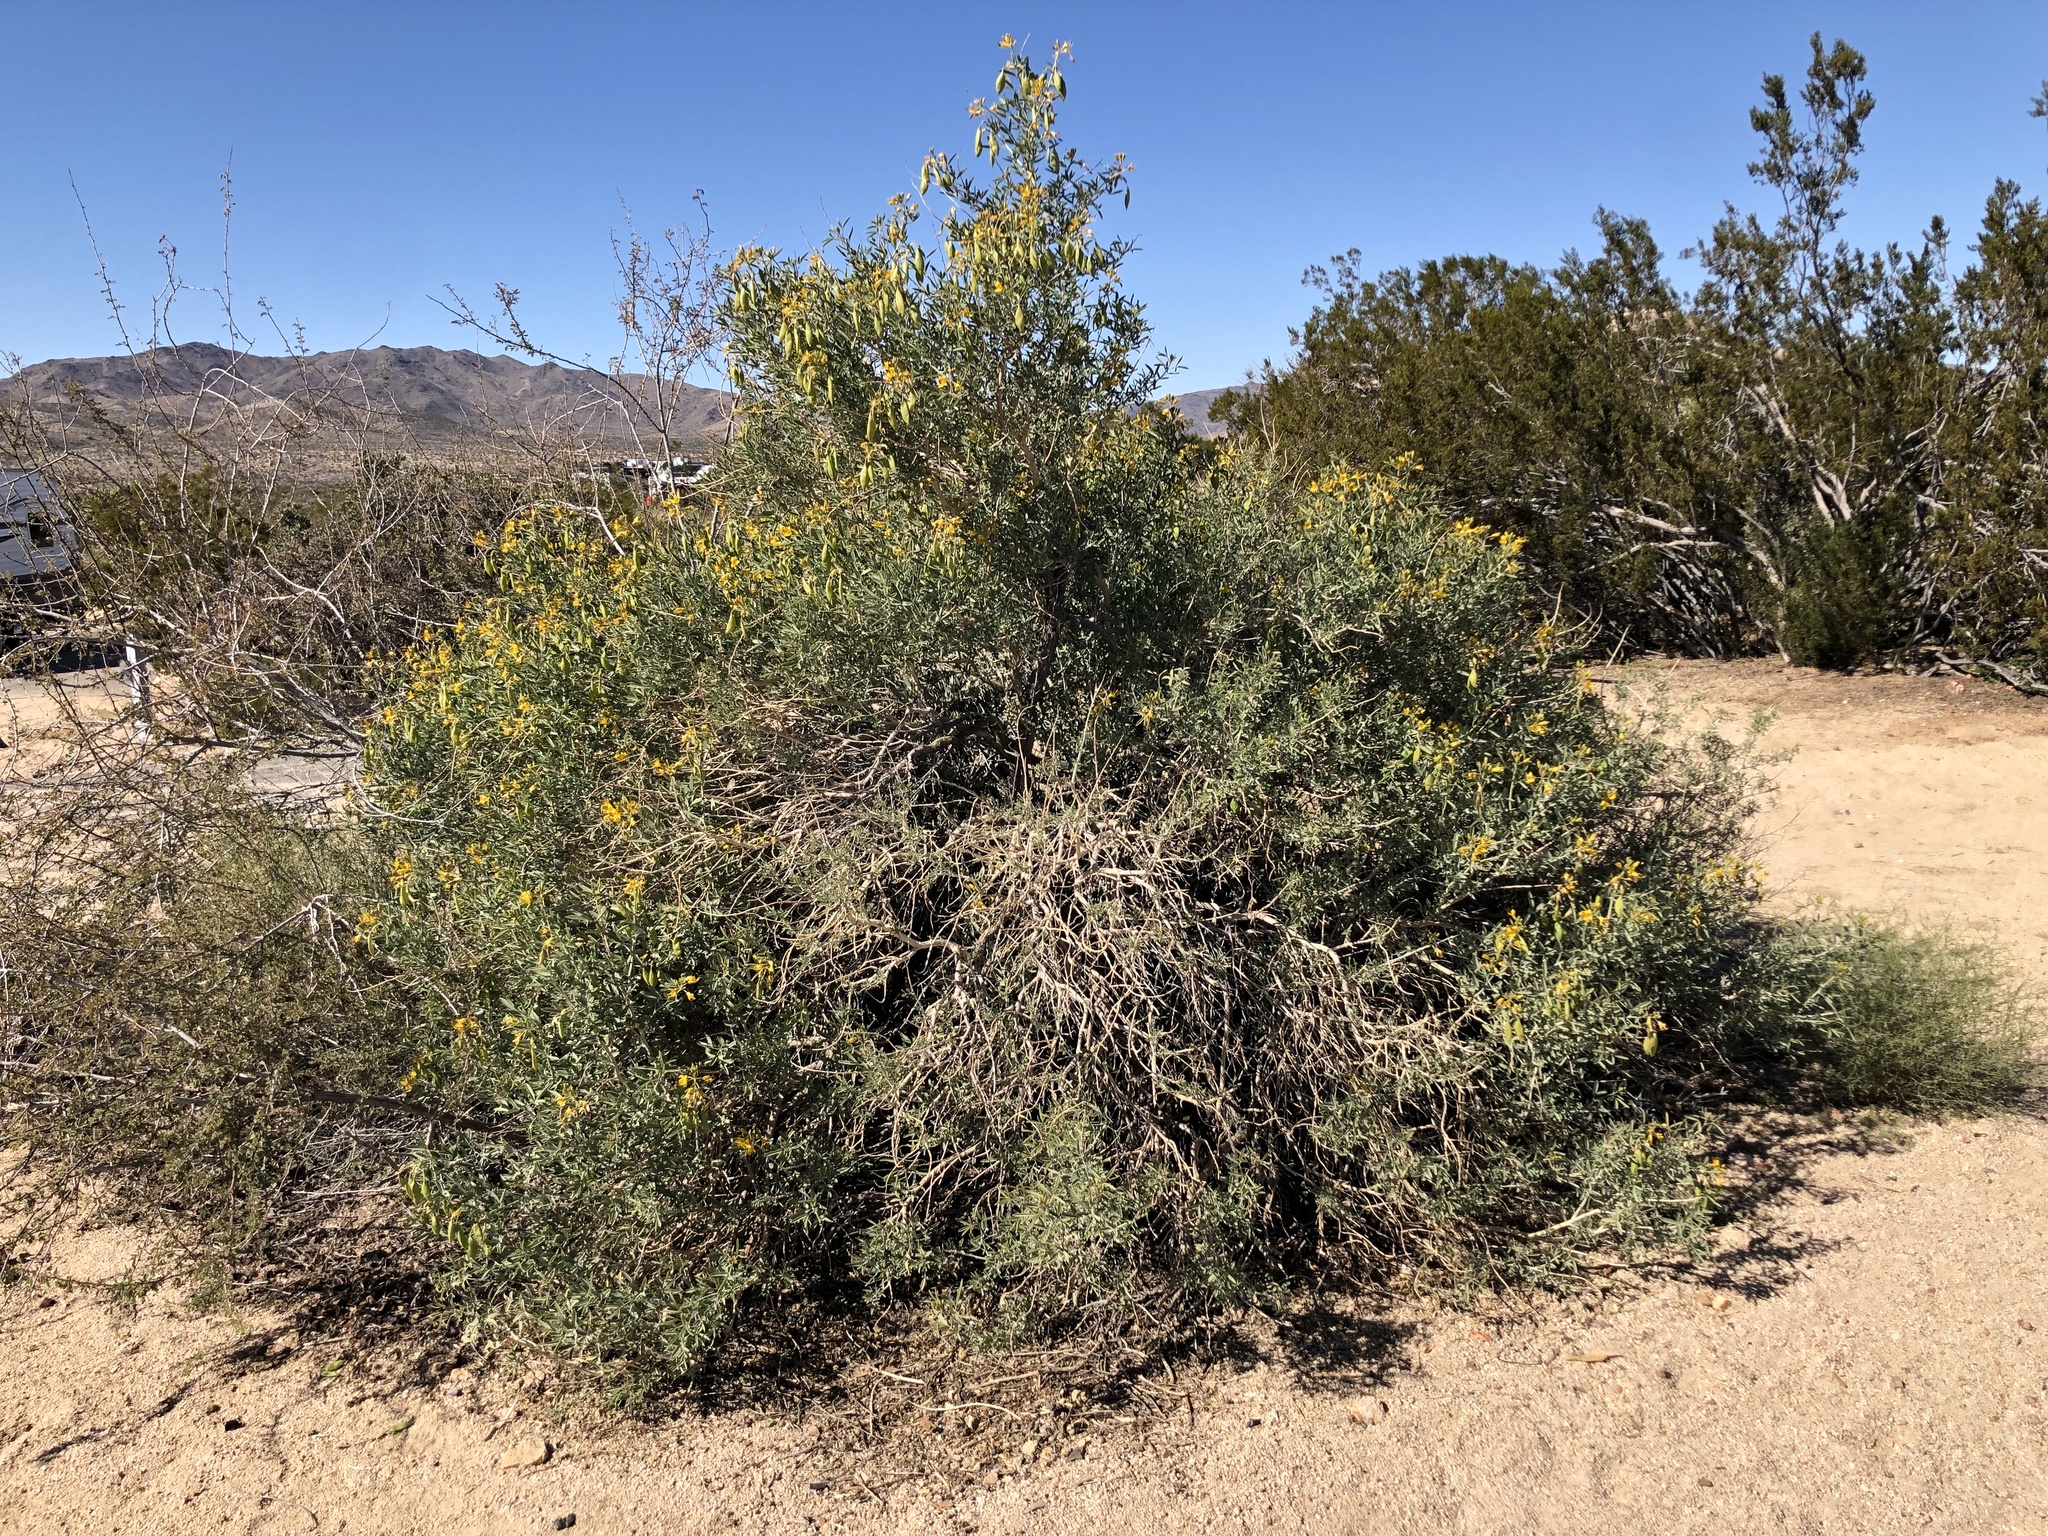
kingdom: Plantae
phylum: Tracheophyta
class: Magnoliopsida
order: Brassicales
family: Cleomaceae
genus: Cleomella
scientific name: Cleomella arborea
